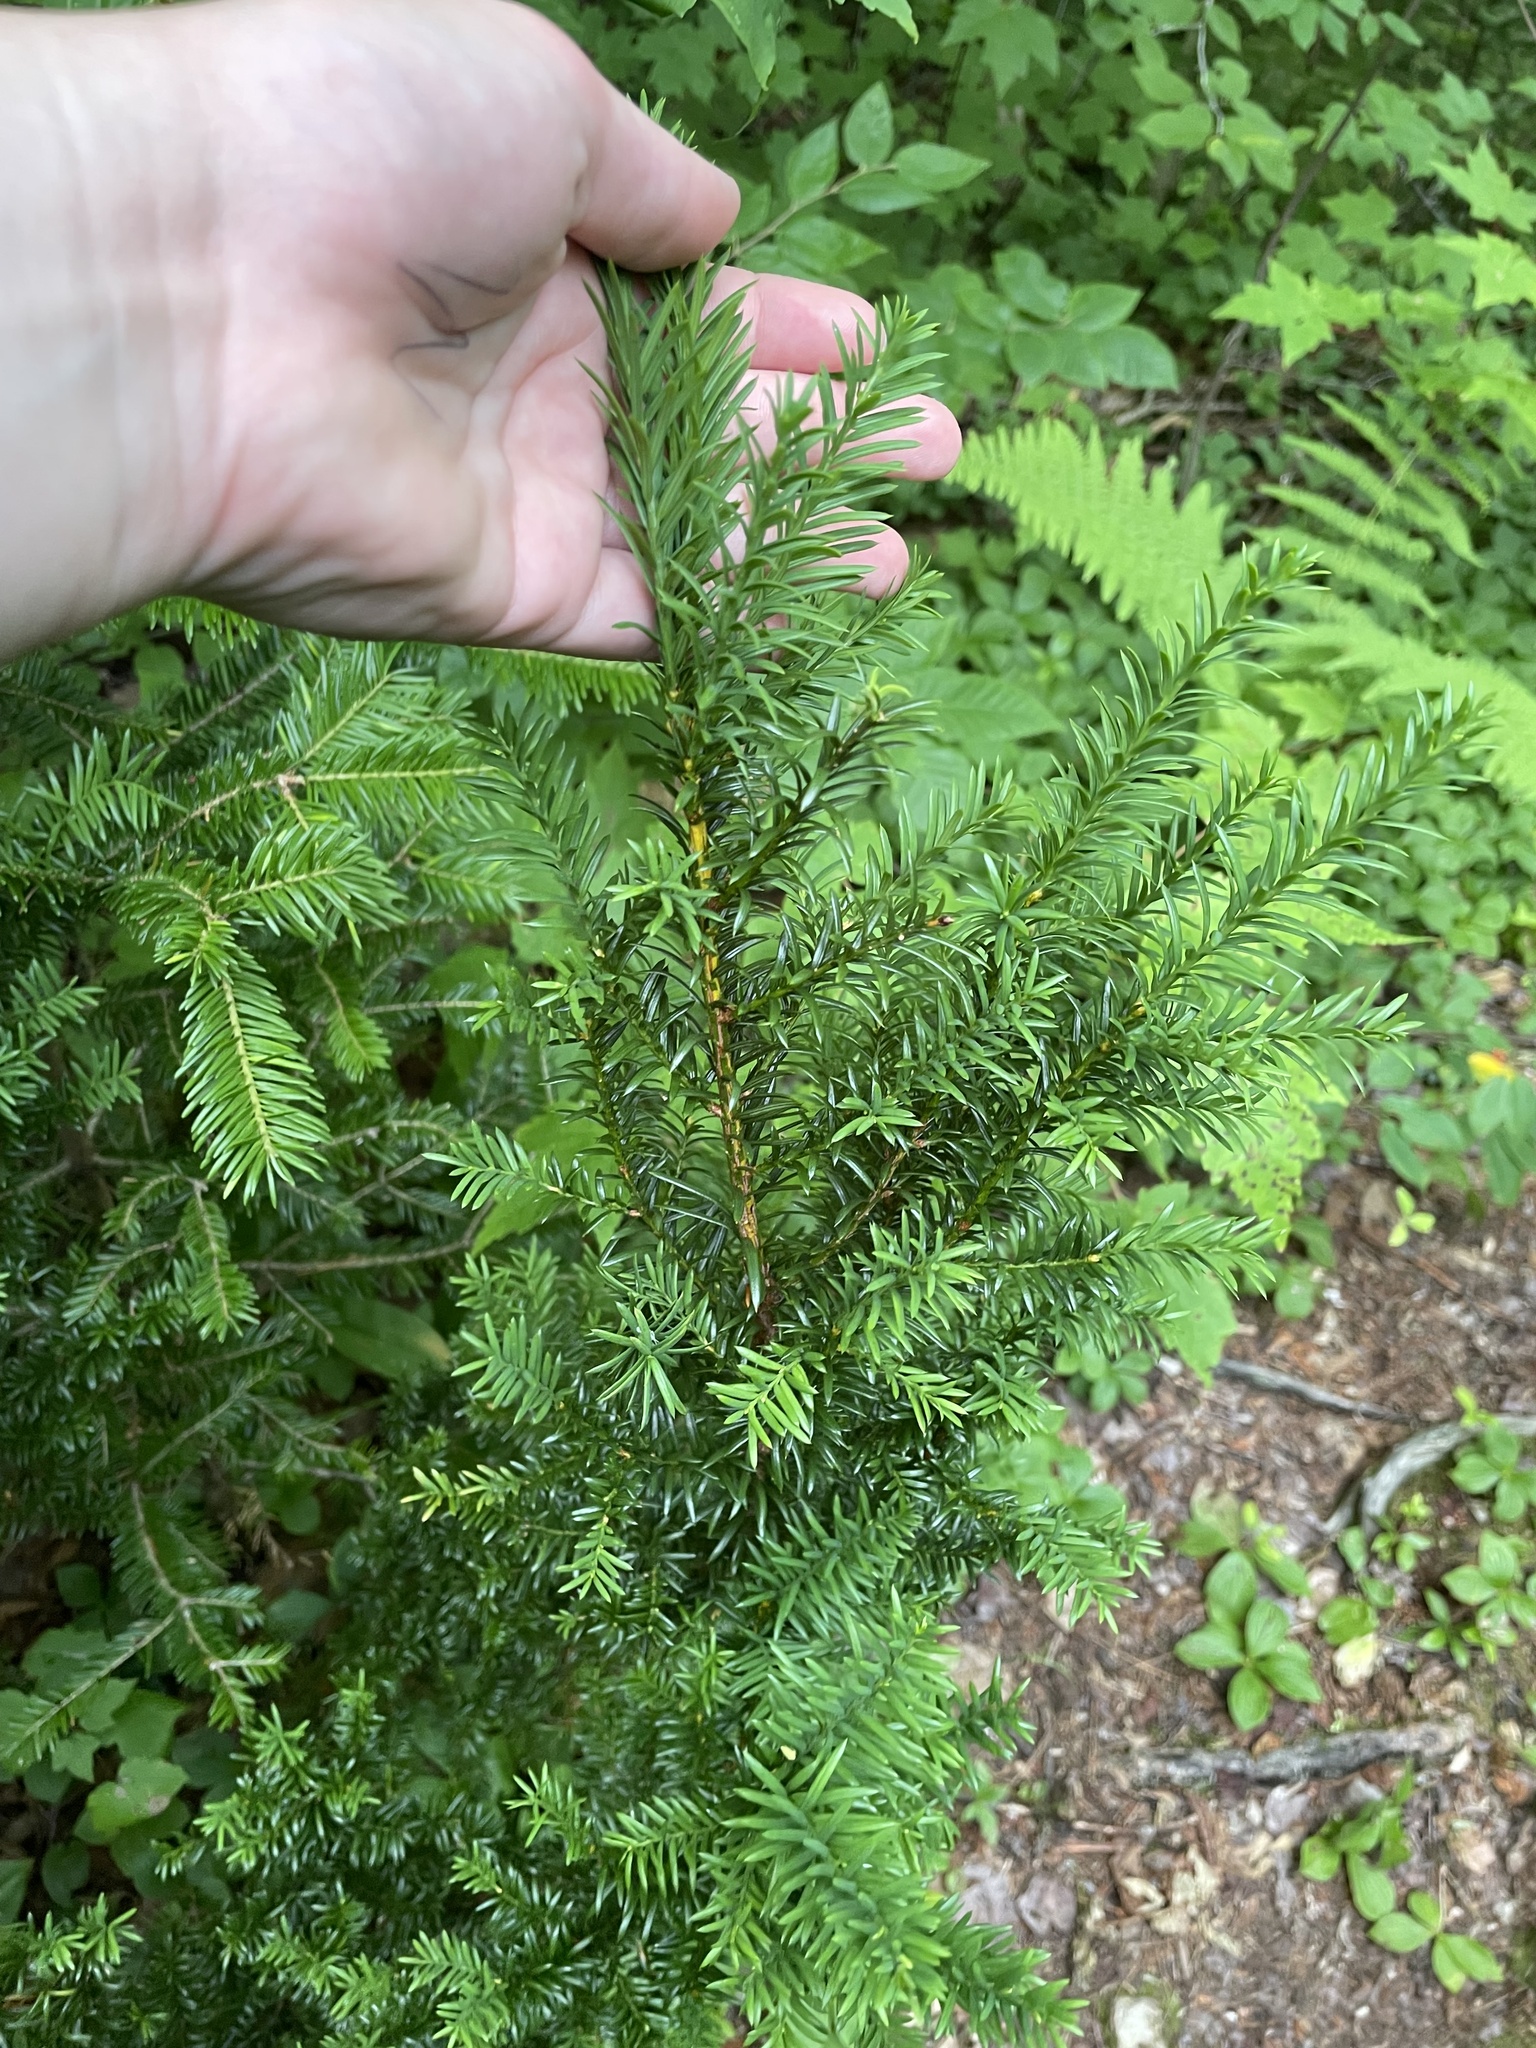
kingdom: Plantae
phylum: Tracheophyta
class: Pinopsida
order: Pinales
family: Taxaceae
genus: Taxus
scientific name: Taxus canadensis
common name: American yew
